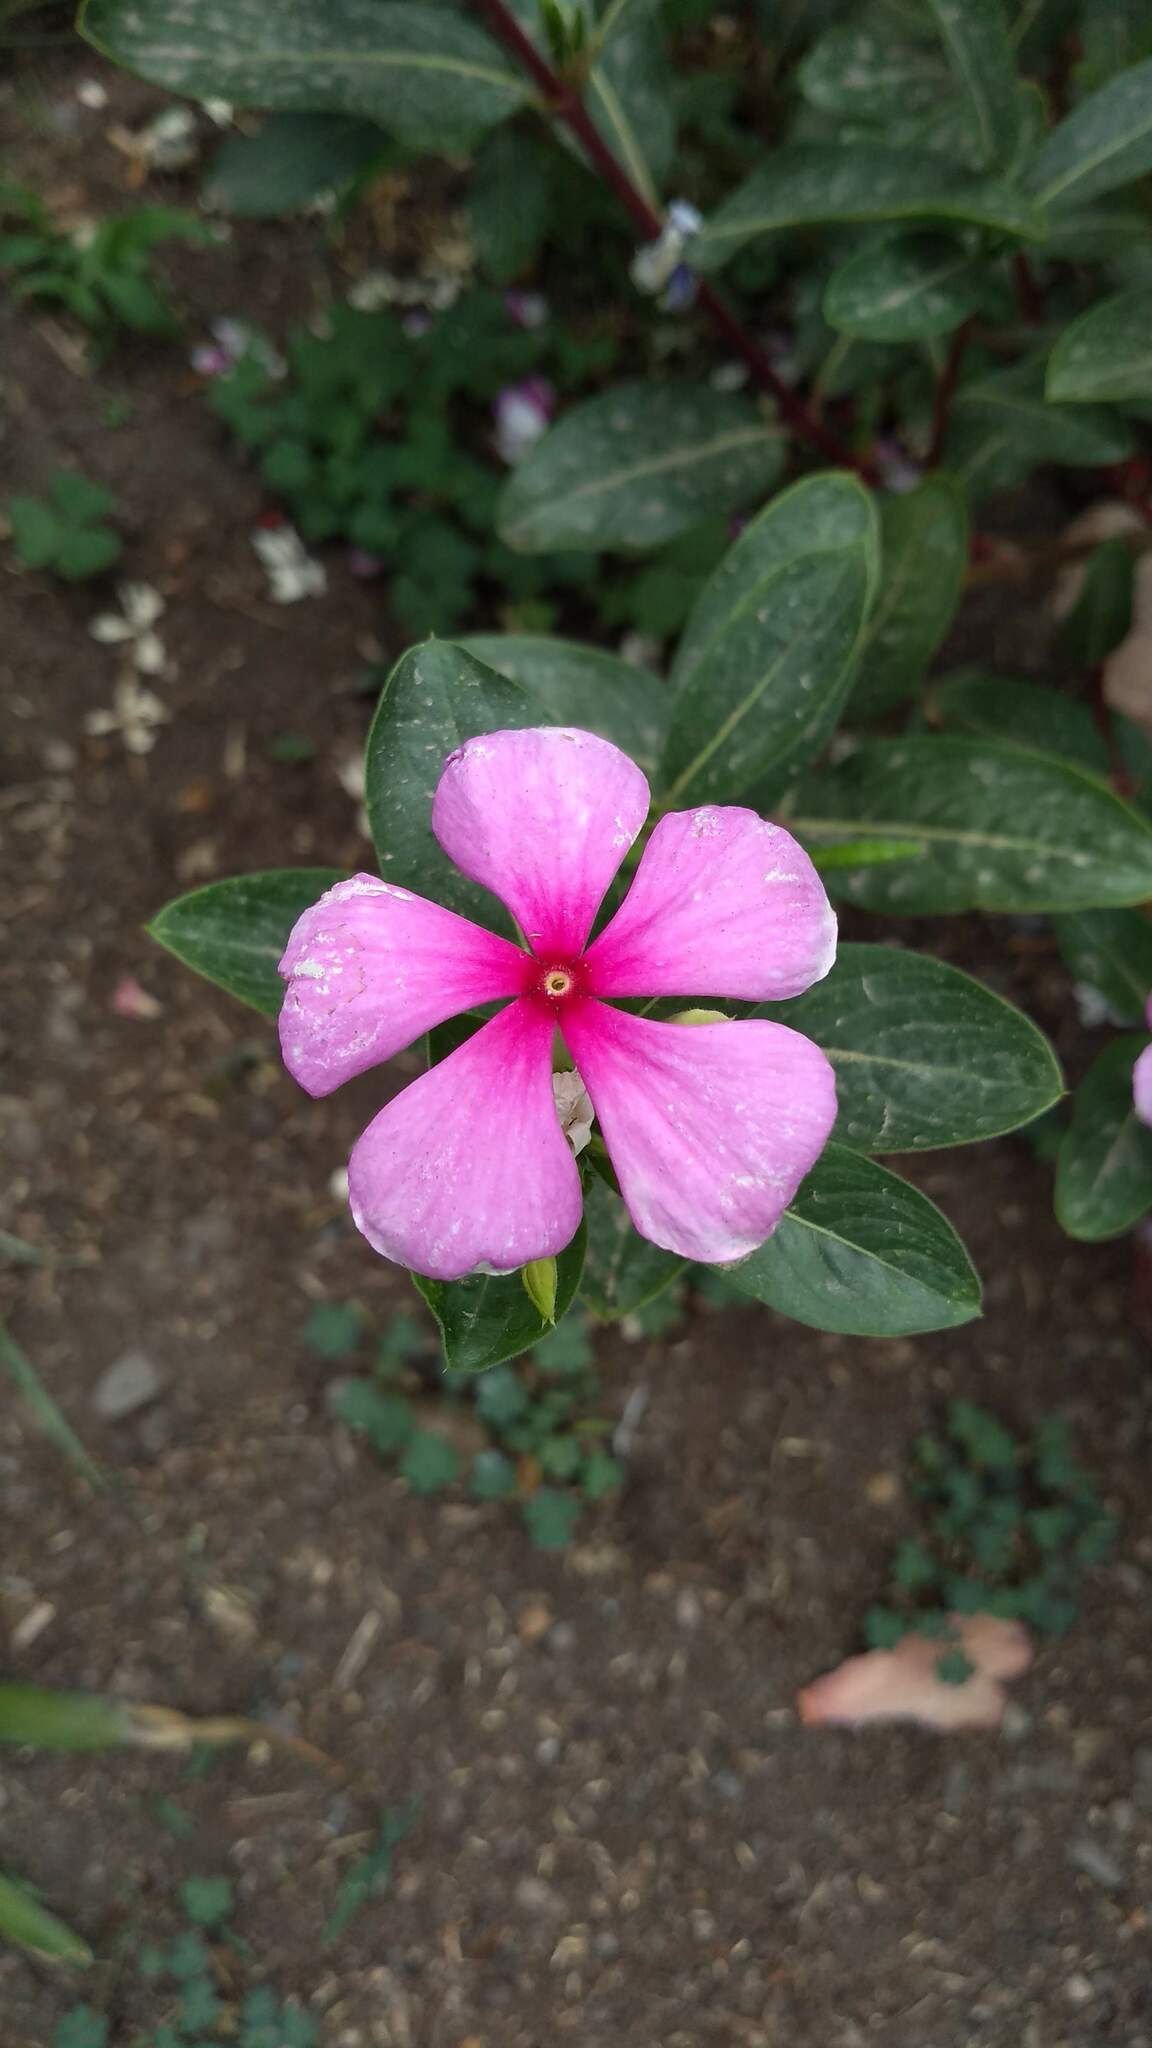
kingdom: Plantae
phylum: Tracheophyta
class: Magnoliopsida
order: Gentianales
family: Apocynaceae
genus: Catharanthus
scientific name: Catharanthus roseus
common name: Madagascar periwinkle
